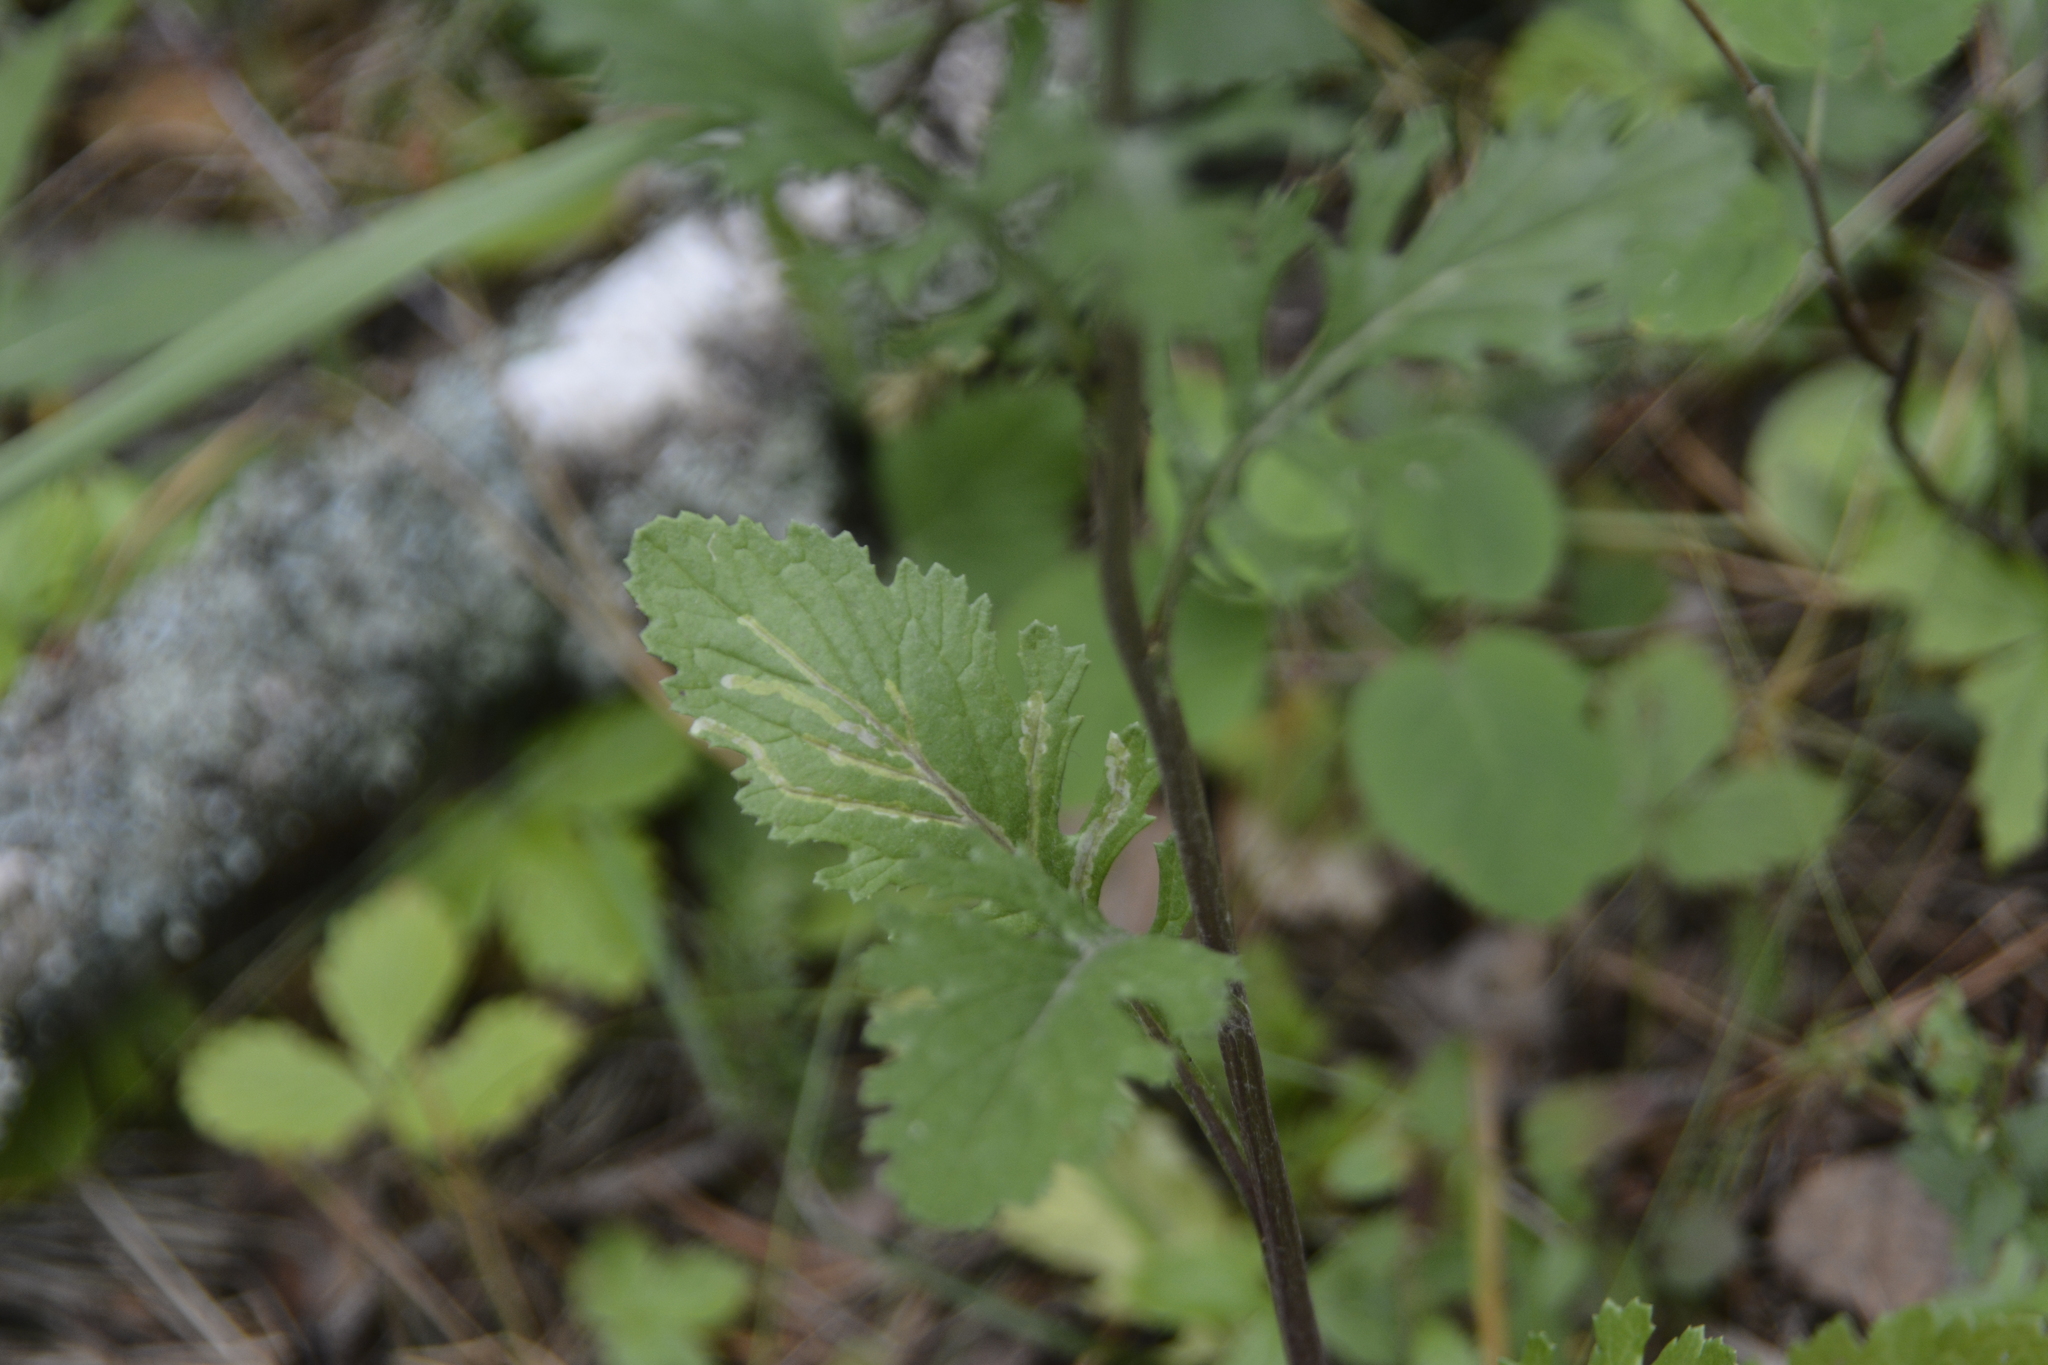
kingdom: Plantae
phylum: Tracheophyta
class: Magnoliopsida
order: Asterales
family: Asteraceae
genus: Jacobaea
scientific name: Jacobaea vulgaris
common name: Stinking willie
